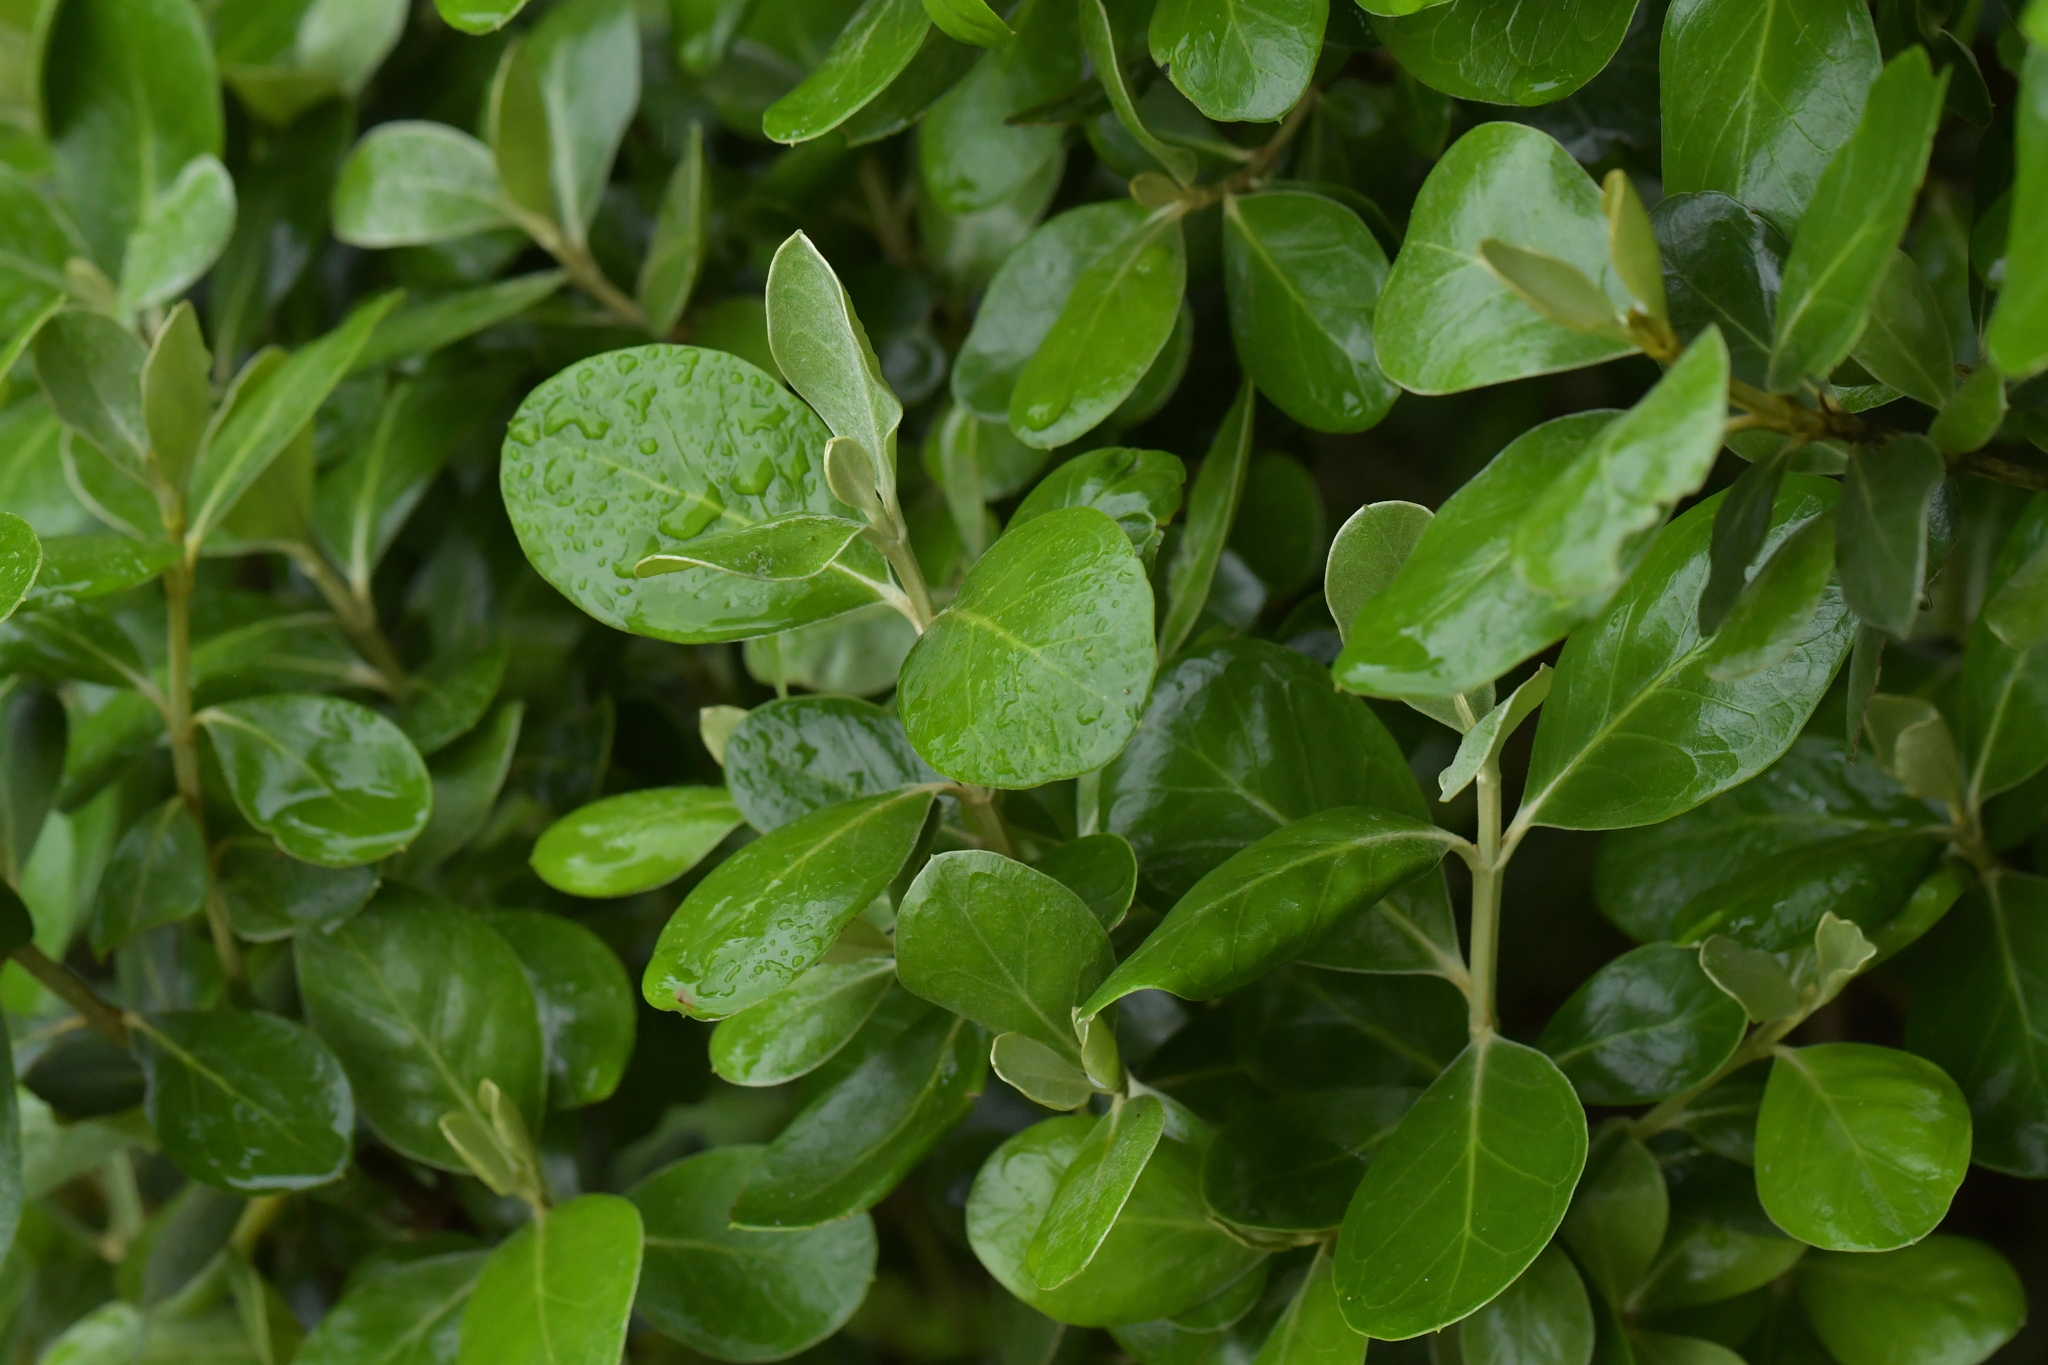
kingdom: Plantae
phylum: Tracheophyta
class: Magnoliopsida
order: Gentianales
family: Rubiaceae
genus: Coprosma
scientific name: Coprosma chathamica
